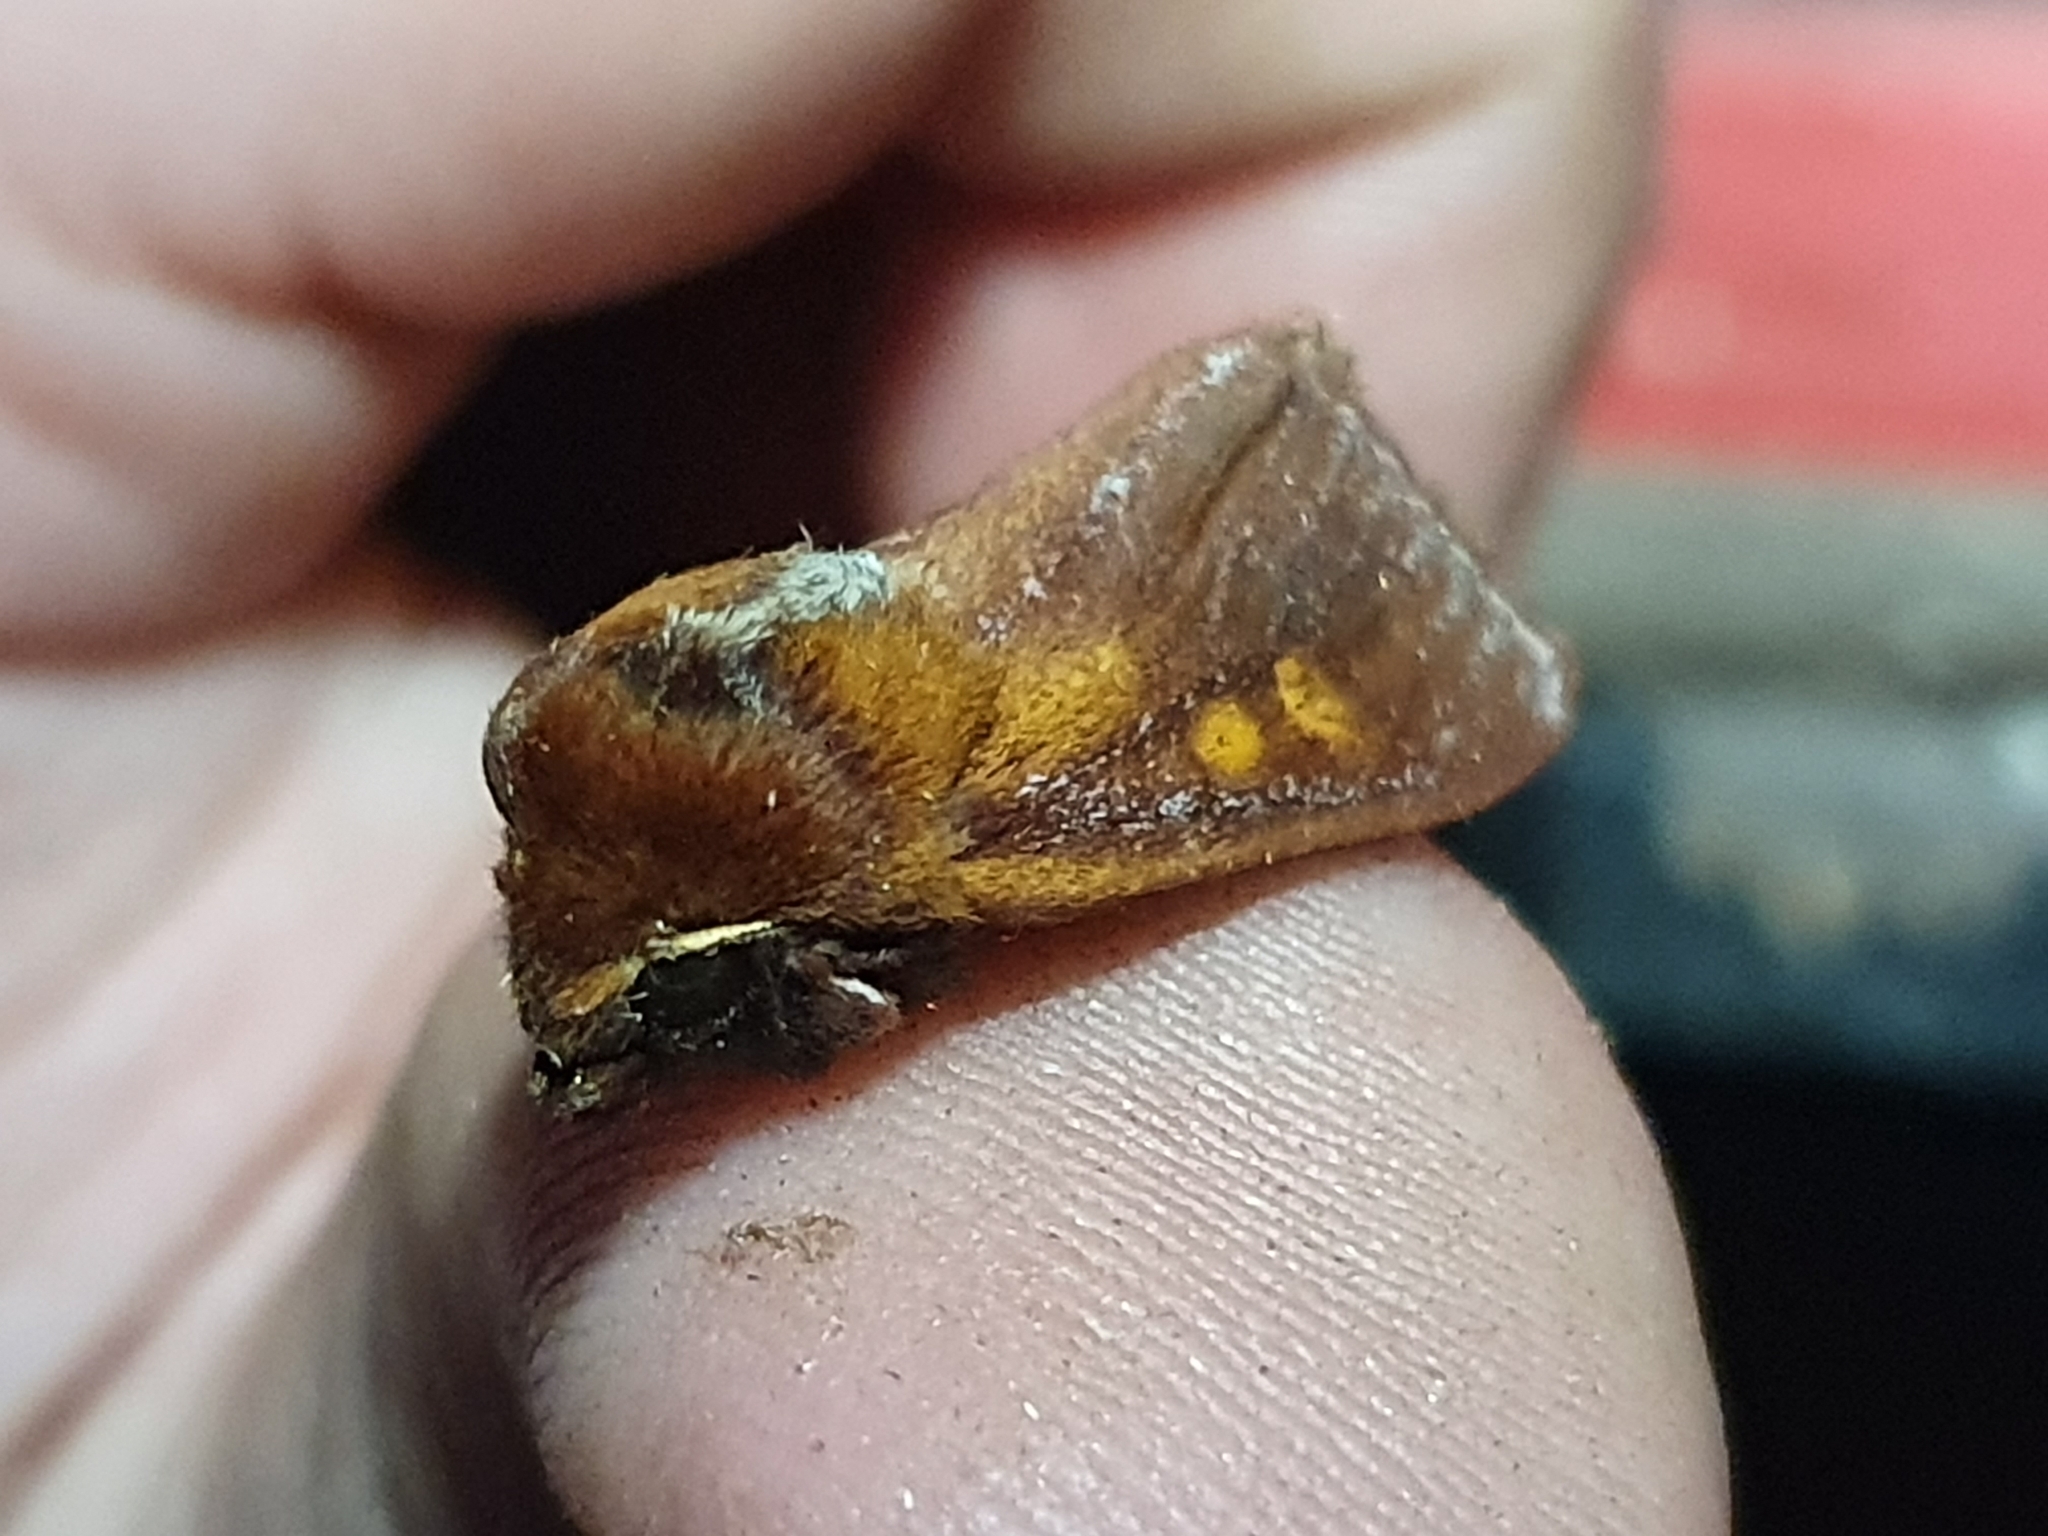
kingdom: Animalia
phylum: Arthropoda
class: Insecta
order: Lepidoptera
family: Noctuidae
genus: Ichneutica
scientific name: Ichneutica
